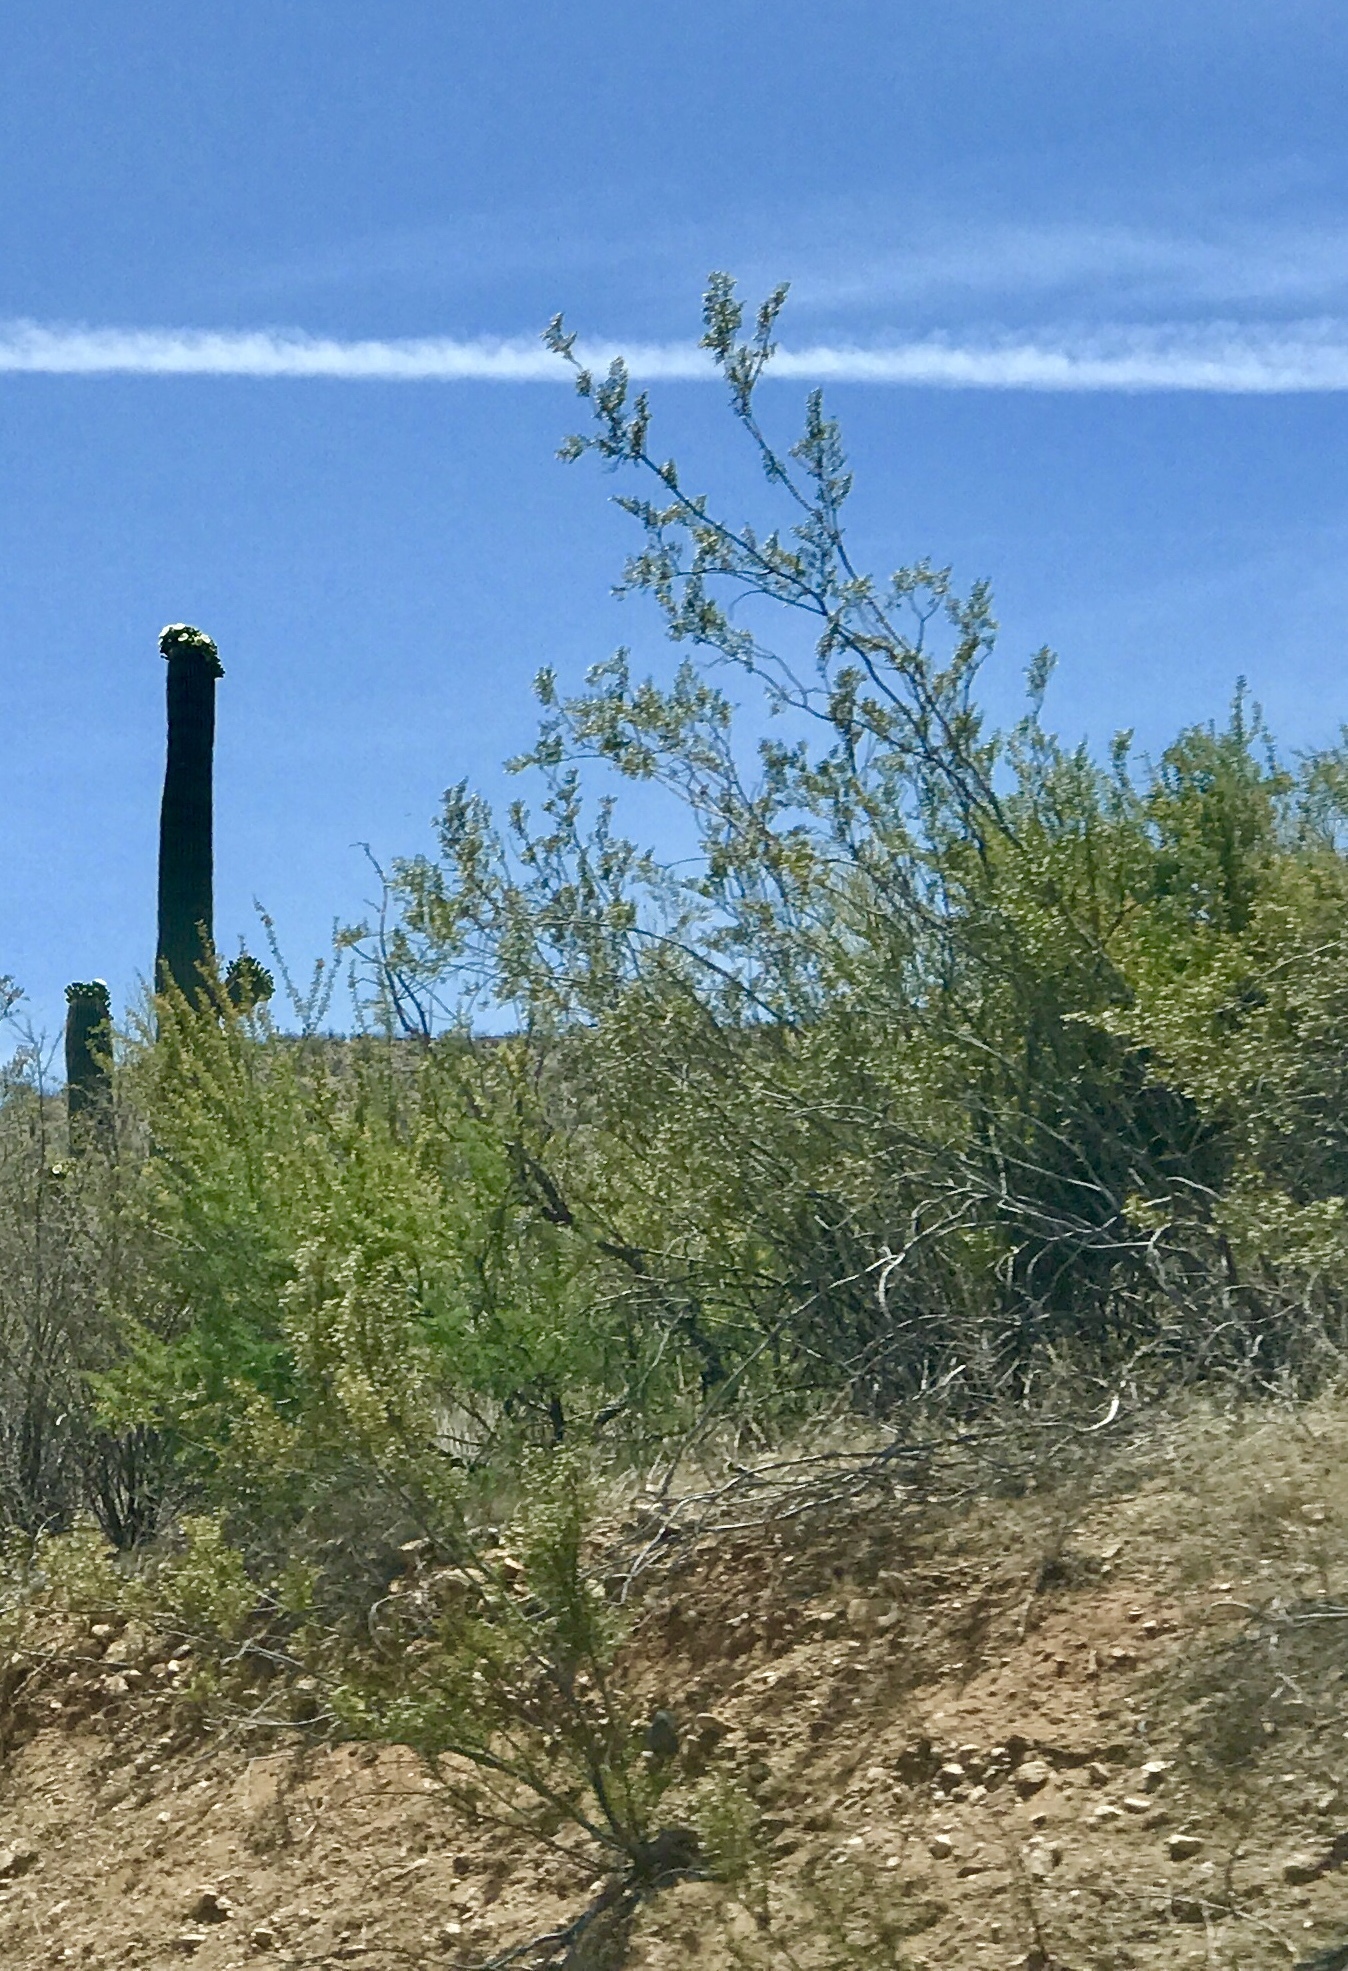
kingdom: Plantae
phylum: Tracheophyta
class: Magnoliopsida
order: Zygophyllales
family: Zygophyllaceae
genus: Larrea
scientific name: Larrea tridentata
